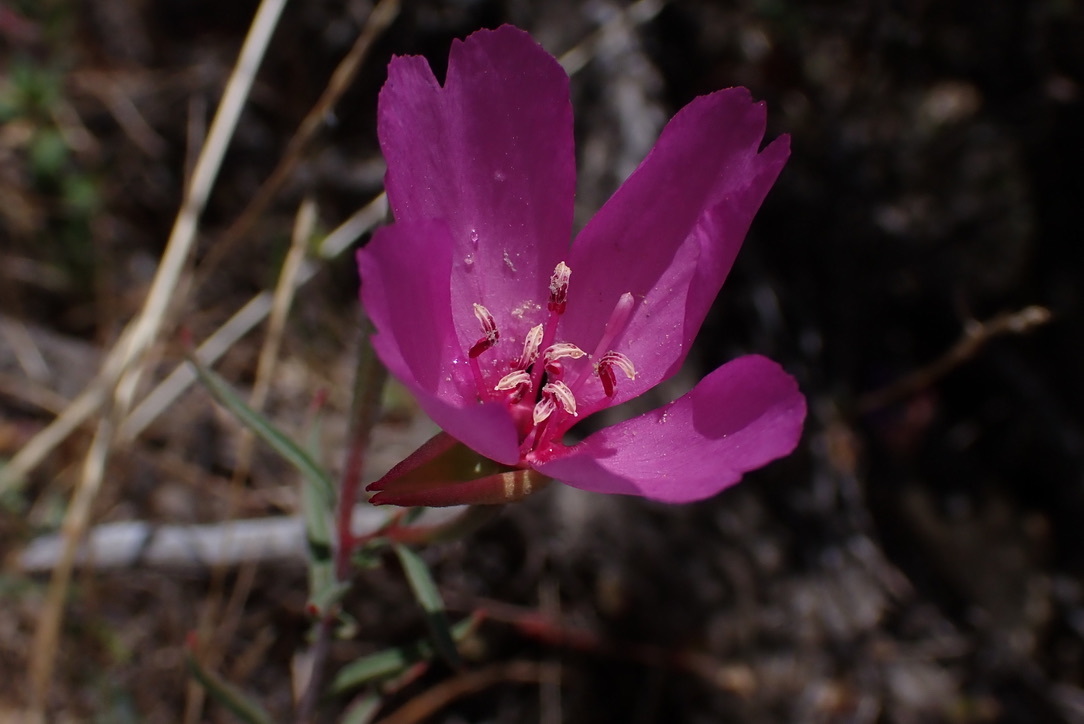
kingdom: Plantae
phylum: Tracheophyta
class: Magnoliopsida
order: Myrtales
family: Onagraceae
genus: Clarkia
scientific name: Clarkia rubicunda
